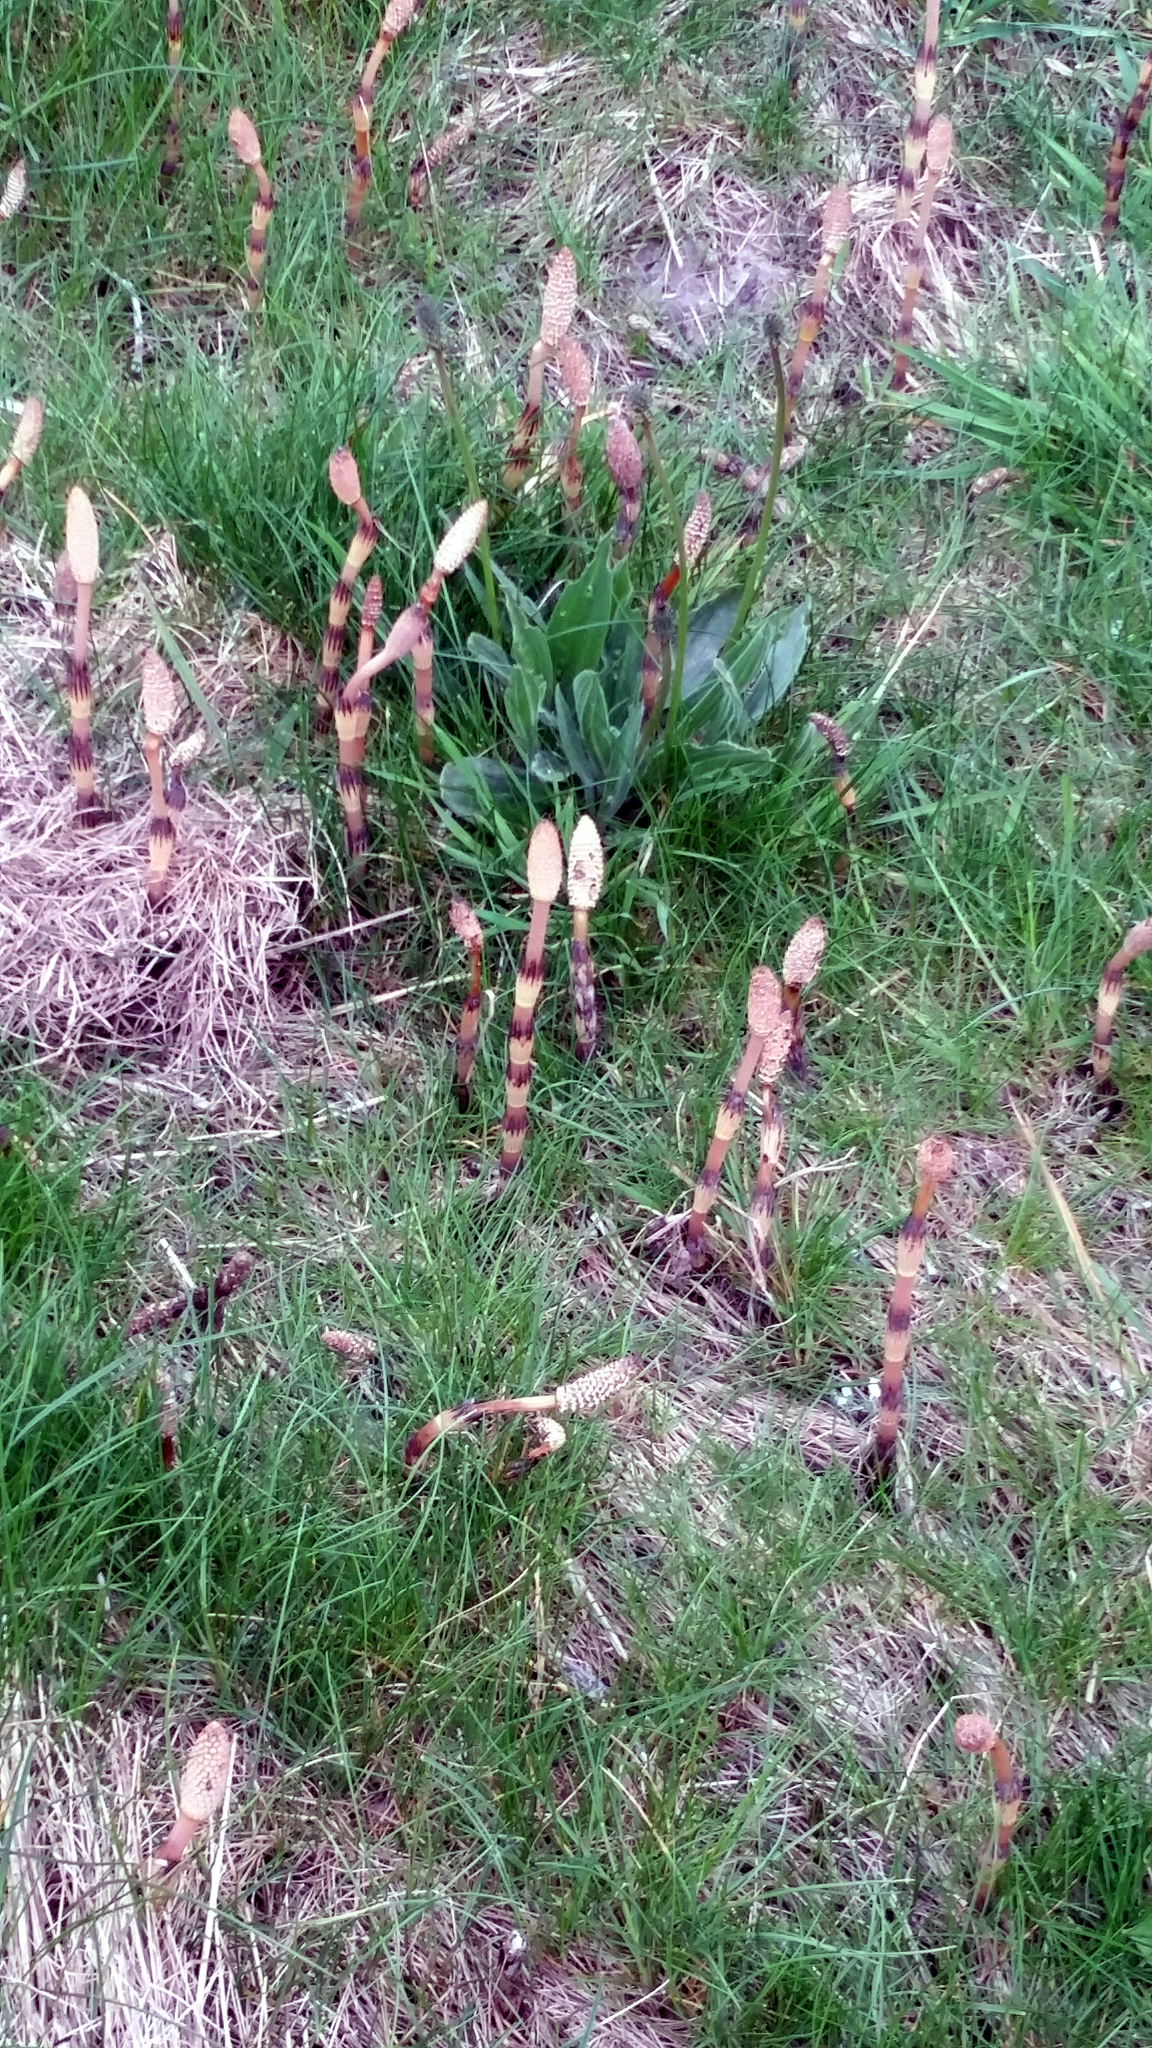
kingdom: Plantae
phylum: Tracheophyta
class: Polypodiopsida
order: Equisetales
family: Equisetaceae
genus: Equisetum
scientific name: Equisetum arvense
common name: Field horsetail
